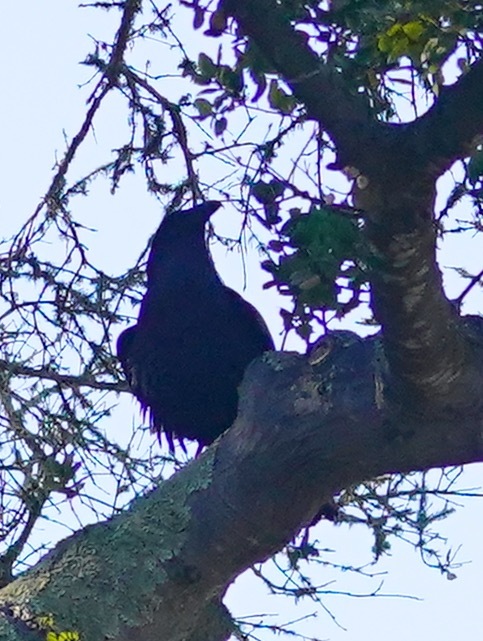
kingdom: Animalia
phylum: Chordata
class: Aves
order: Passeriformes
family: Corvidae
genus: Corvus
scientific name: Corvus corax
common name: Common raven
